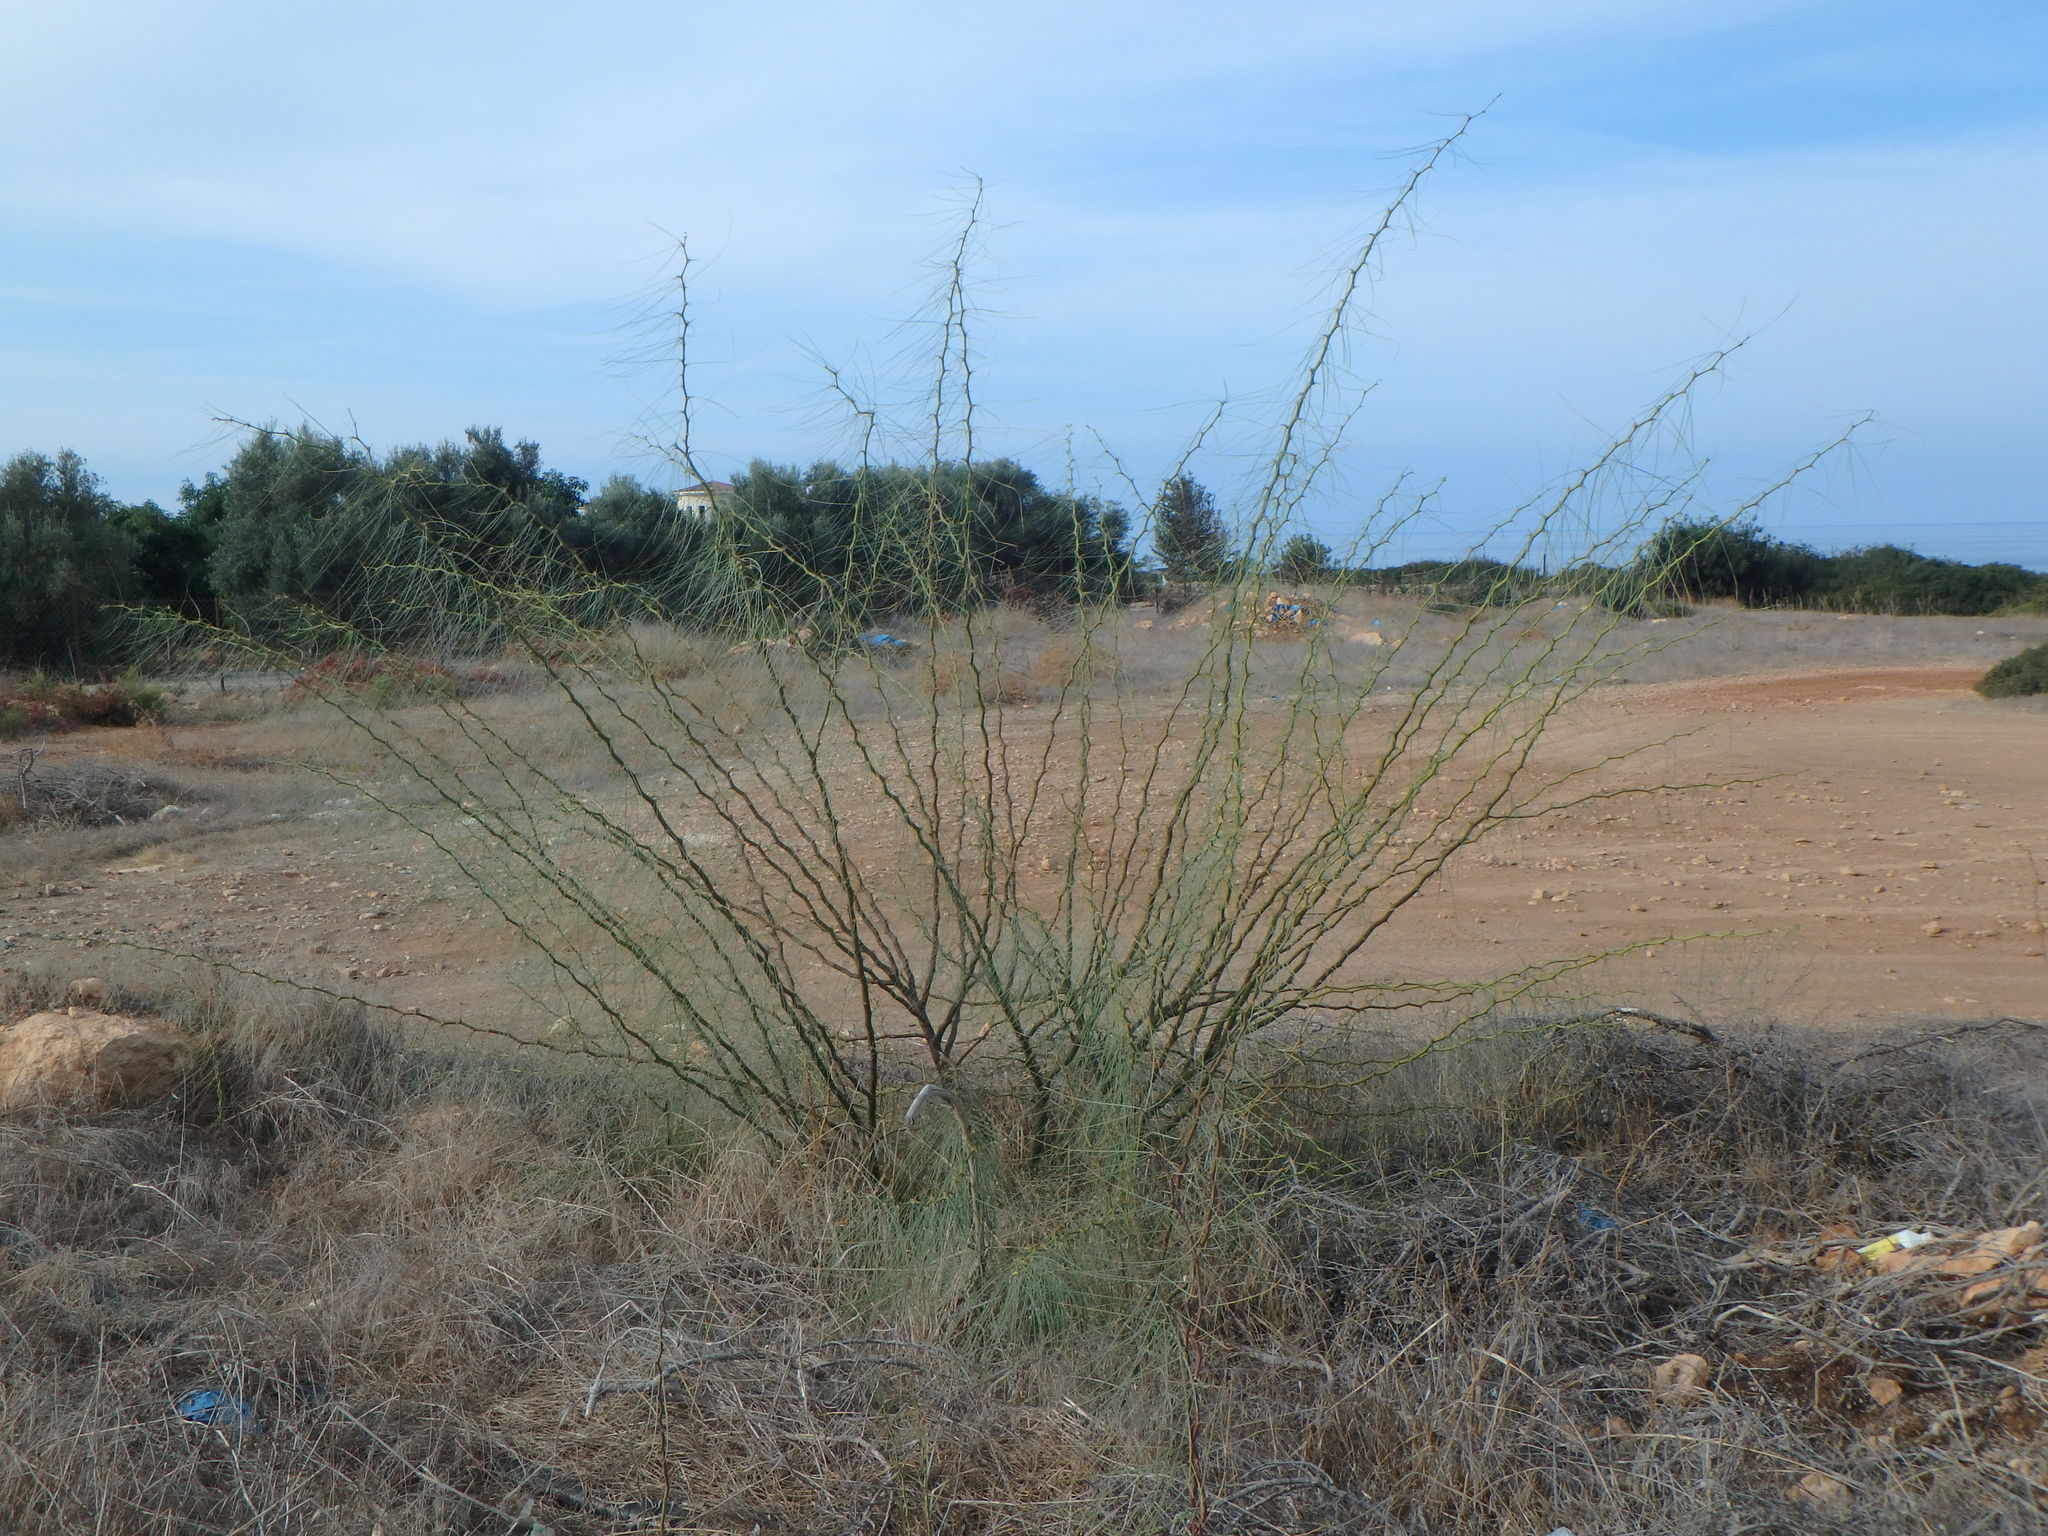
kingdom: Plantae
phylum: Tracheophyta
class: Magnoliopsida
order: Fabales
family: Fabaceae
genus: Parkinsonia
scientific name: Parkinsonia aculeata
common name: Jerusalem thorn
